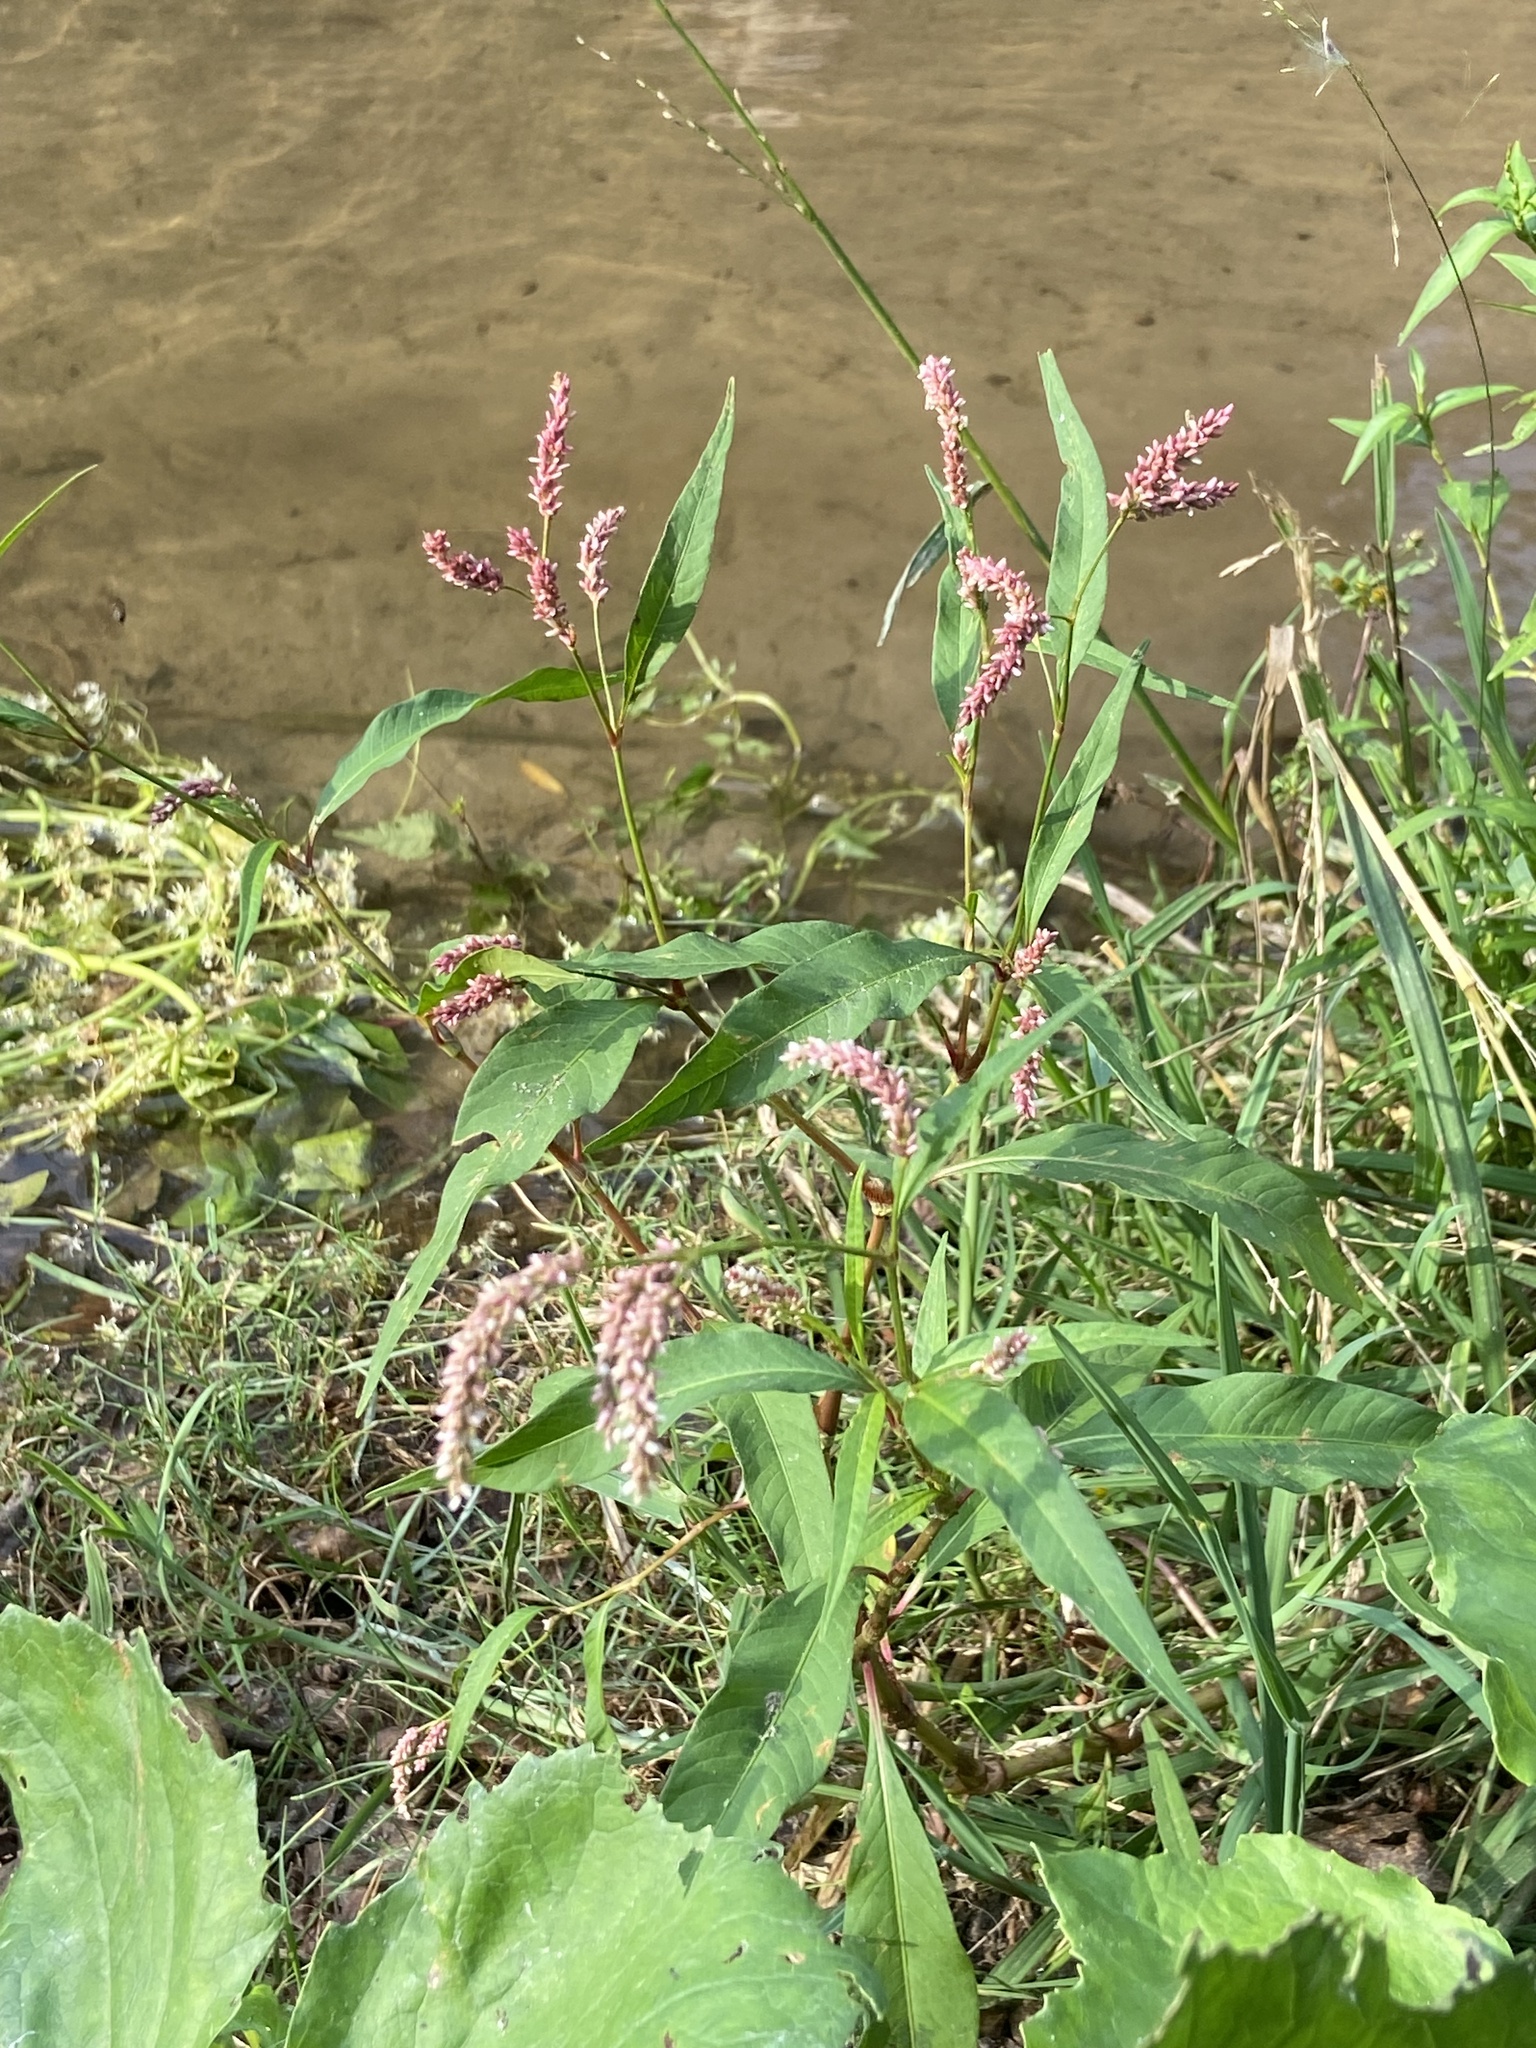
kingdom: Plantae
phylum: Tracheophyta
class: Magnoliopsida
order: Caryophyllales
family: Polygonaceae
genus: Persicaria
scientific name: Persicaria lapathifolia
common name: Curlytop knotweed
